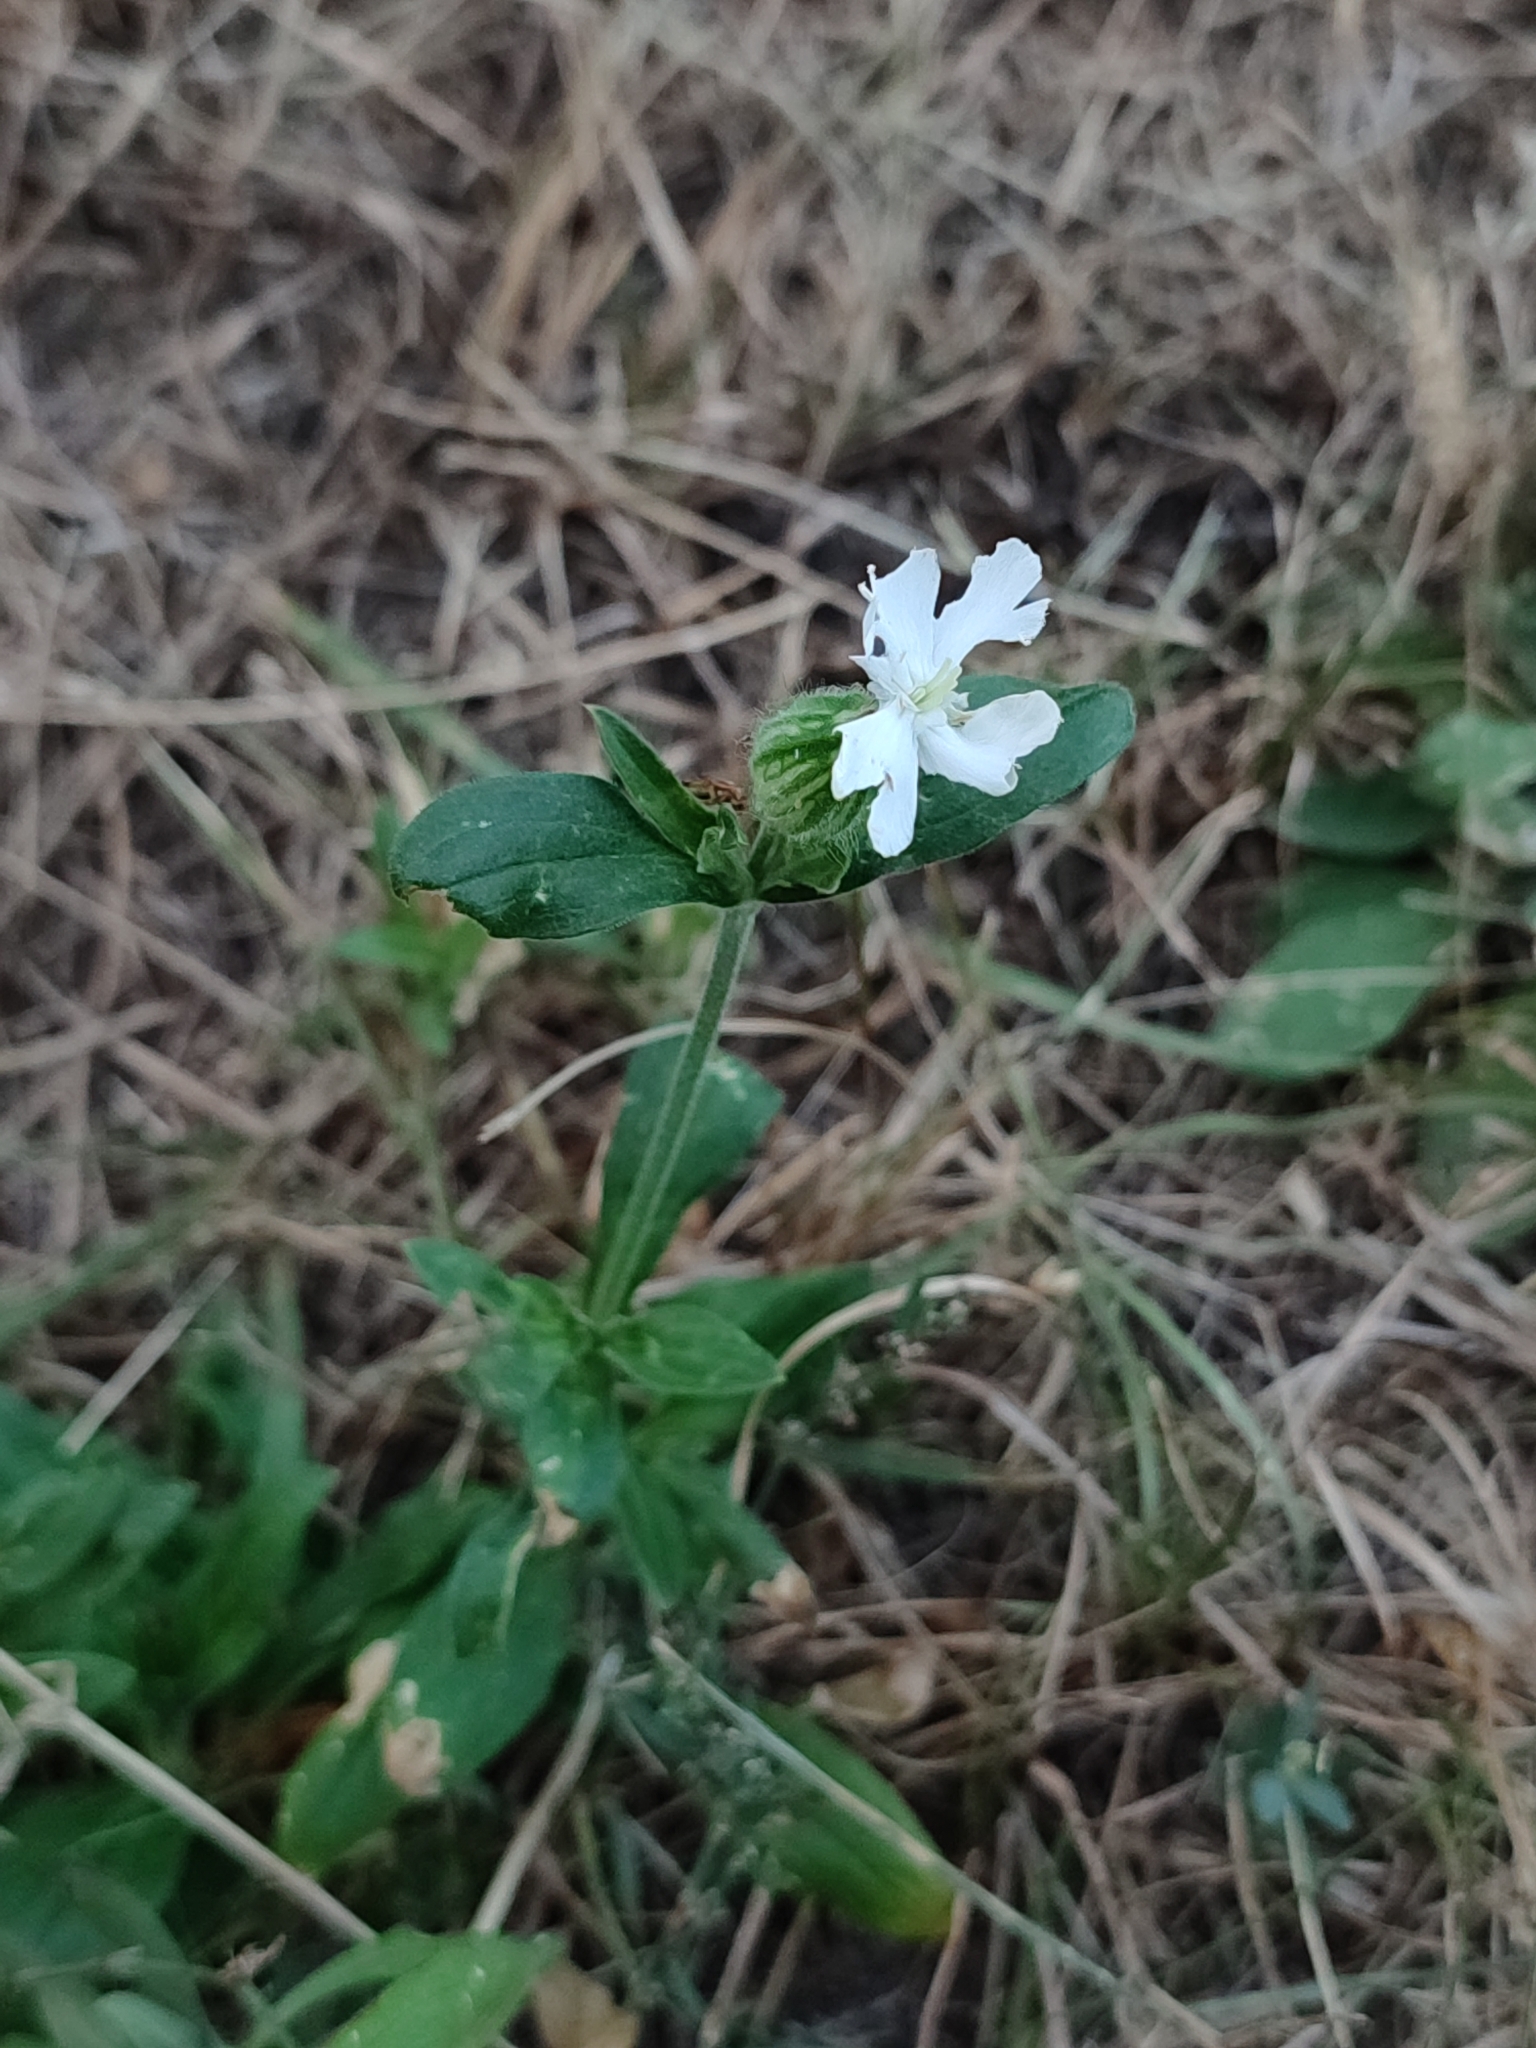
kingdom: Plantae
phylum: Tracheophyta
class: Magnoliopsida
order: Caryophyllales
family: Caryophyllaceae
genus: Silene
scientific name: Silene latifolia
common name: White campion
